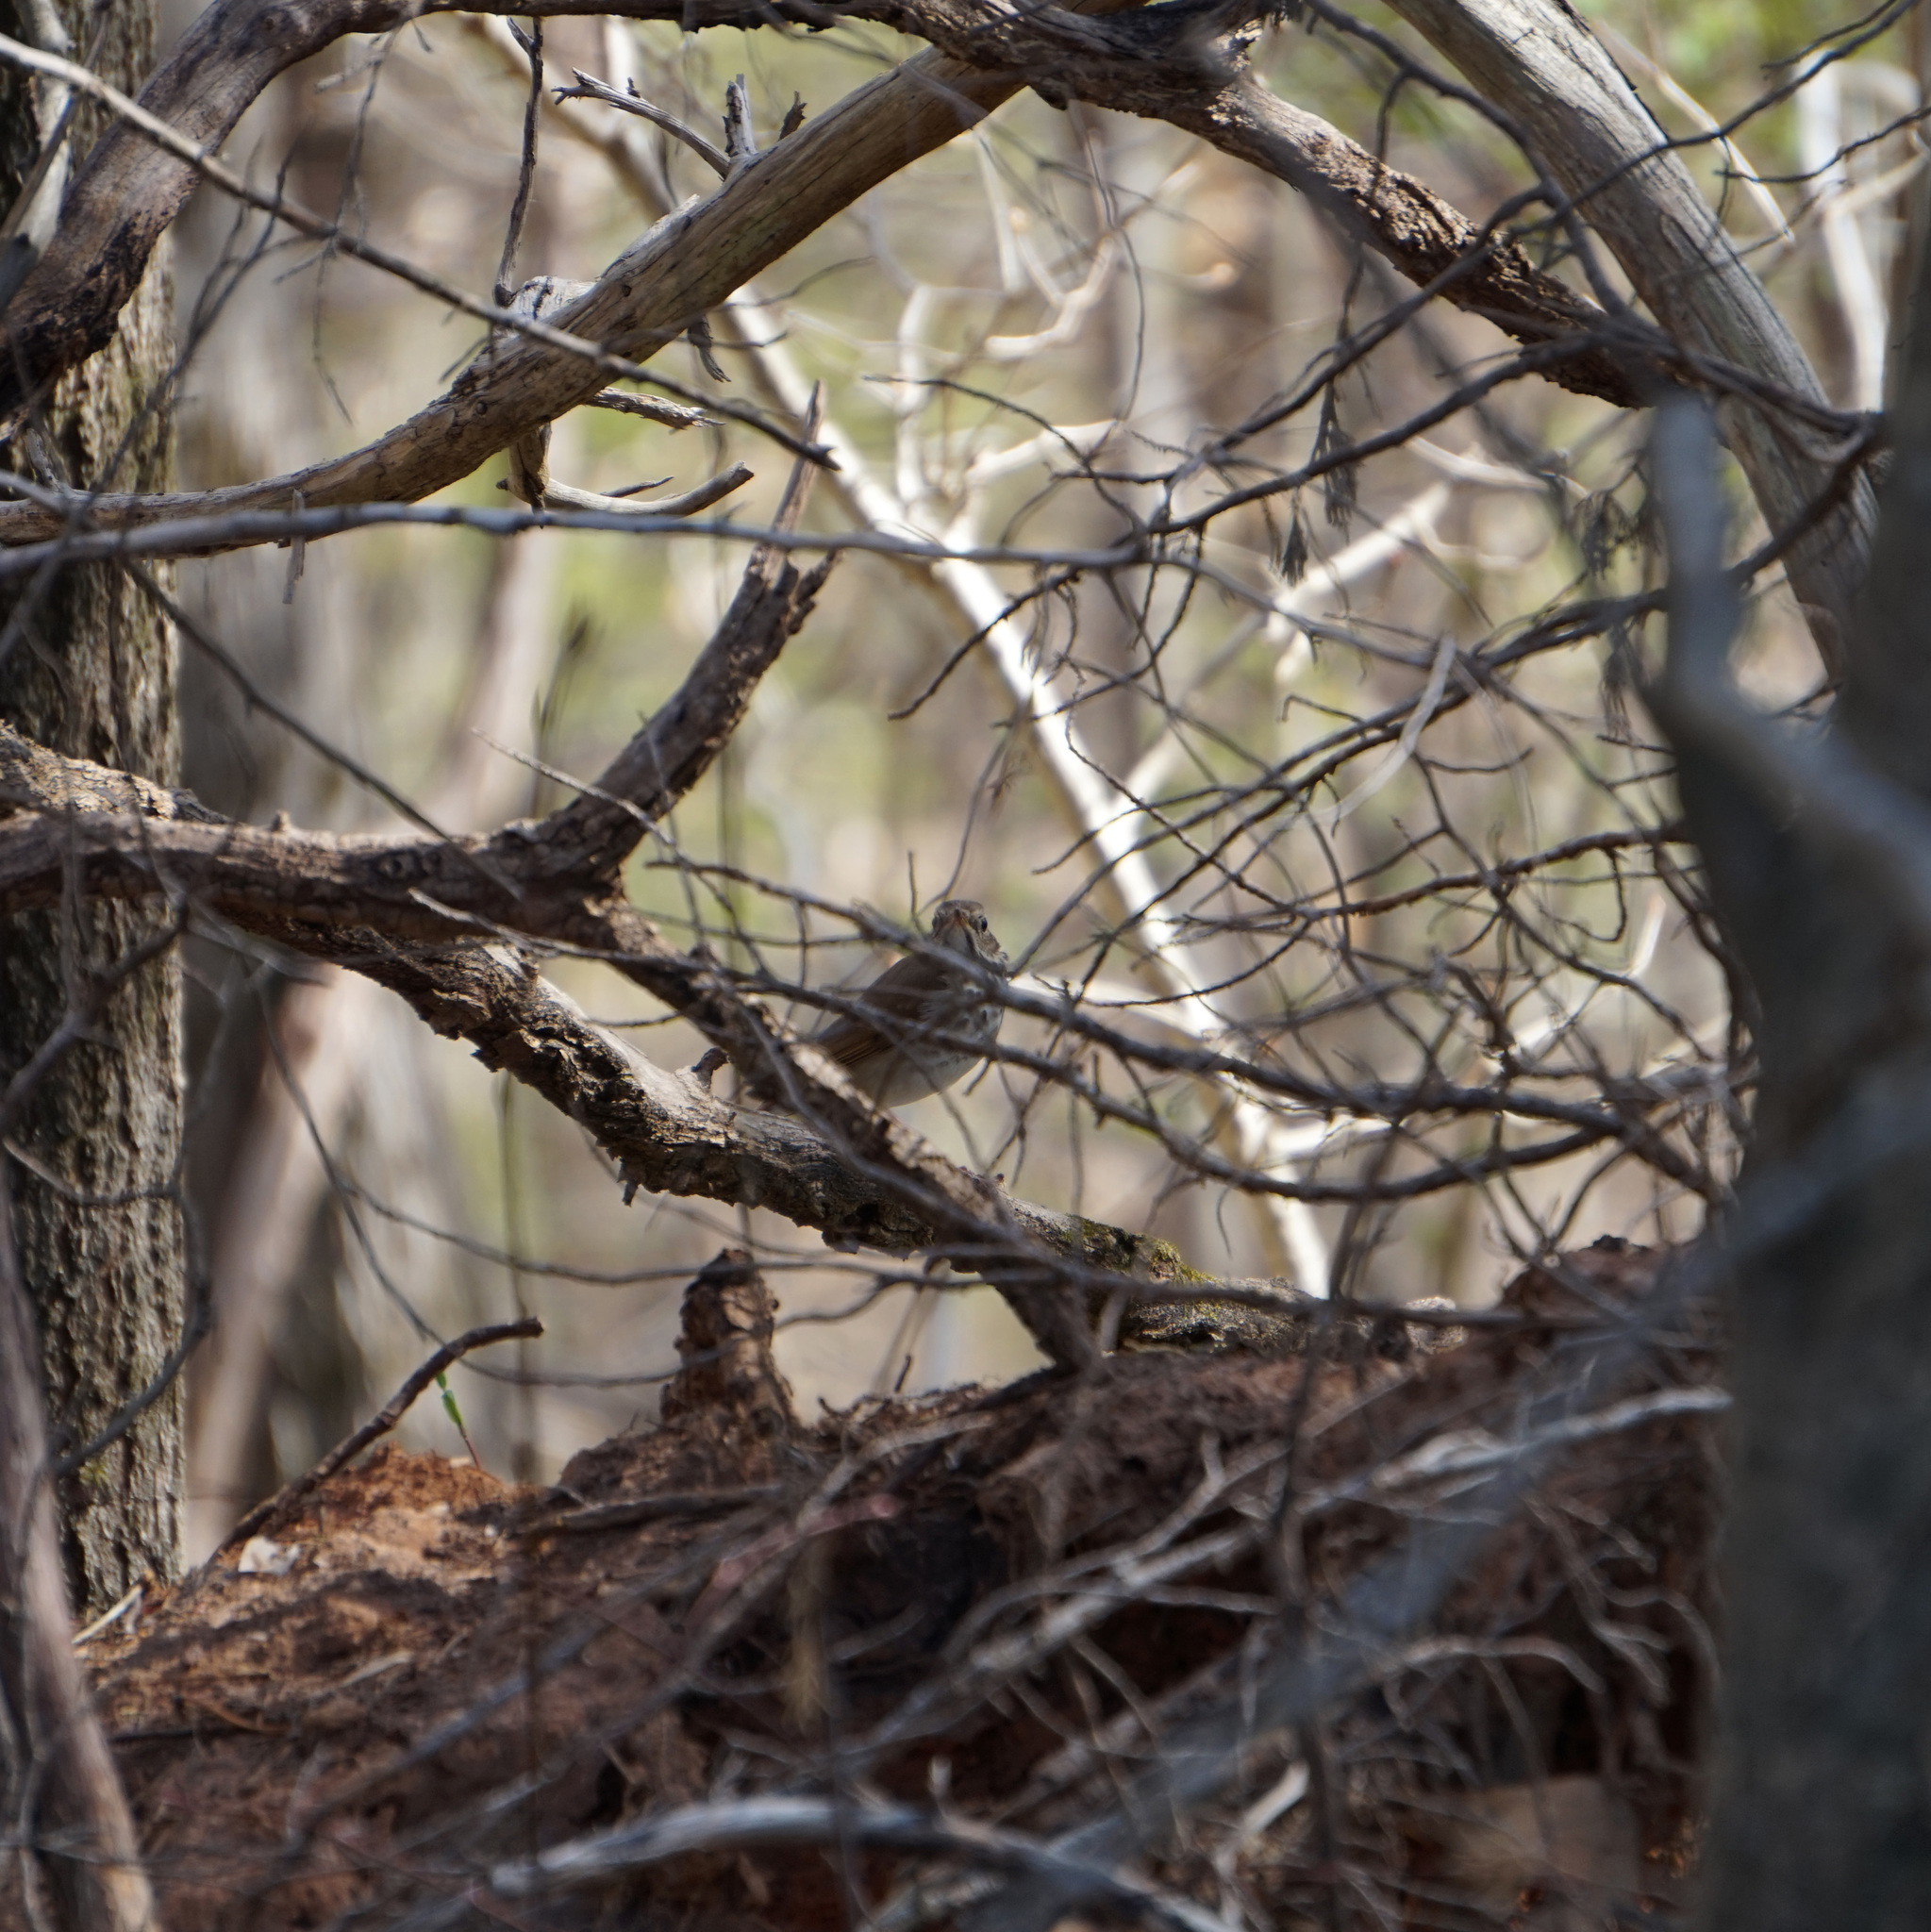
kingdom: Animalia
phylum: Chordata
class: Aves
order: Passeriformes
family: Turdidae
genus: Catharus
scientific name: Catharus guttatus
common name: Hermit thrush
